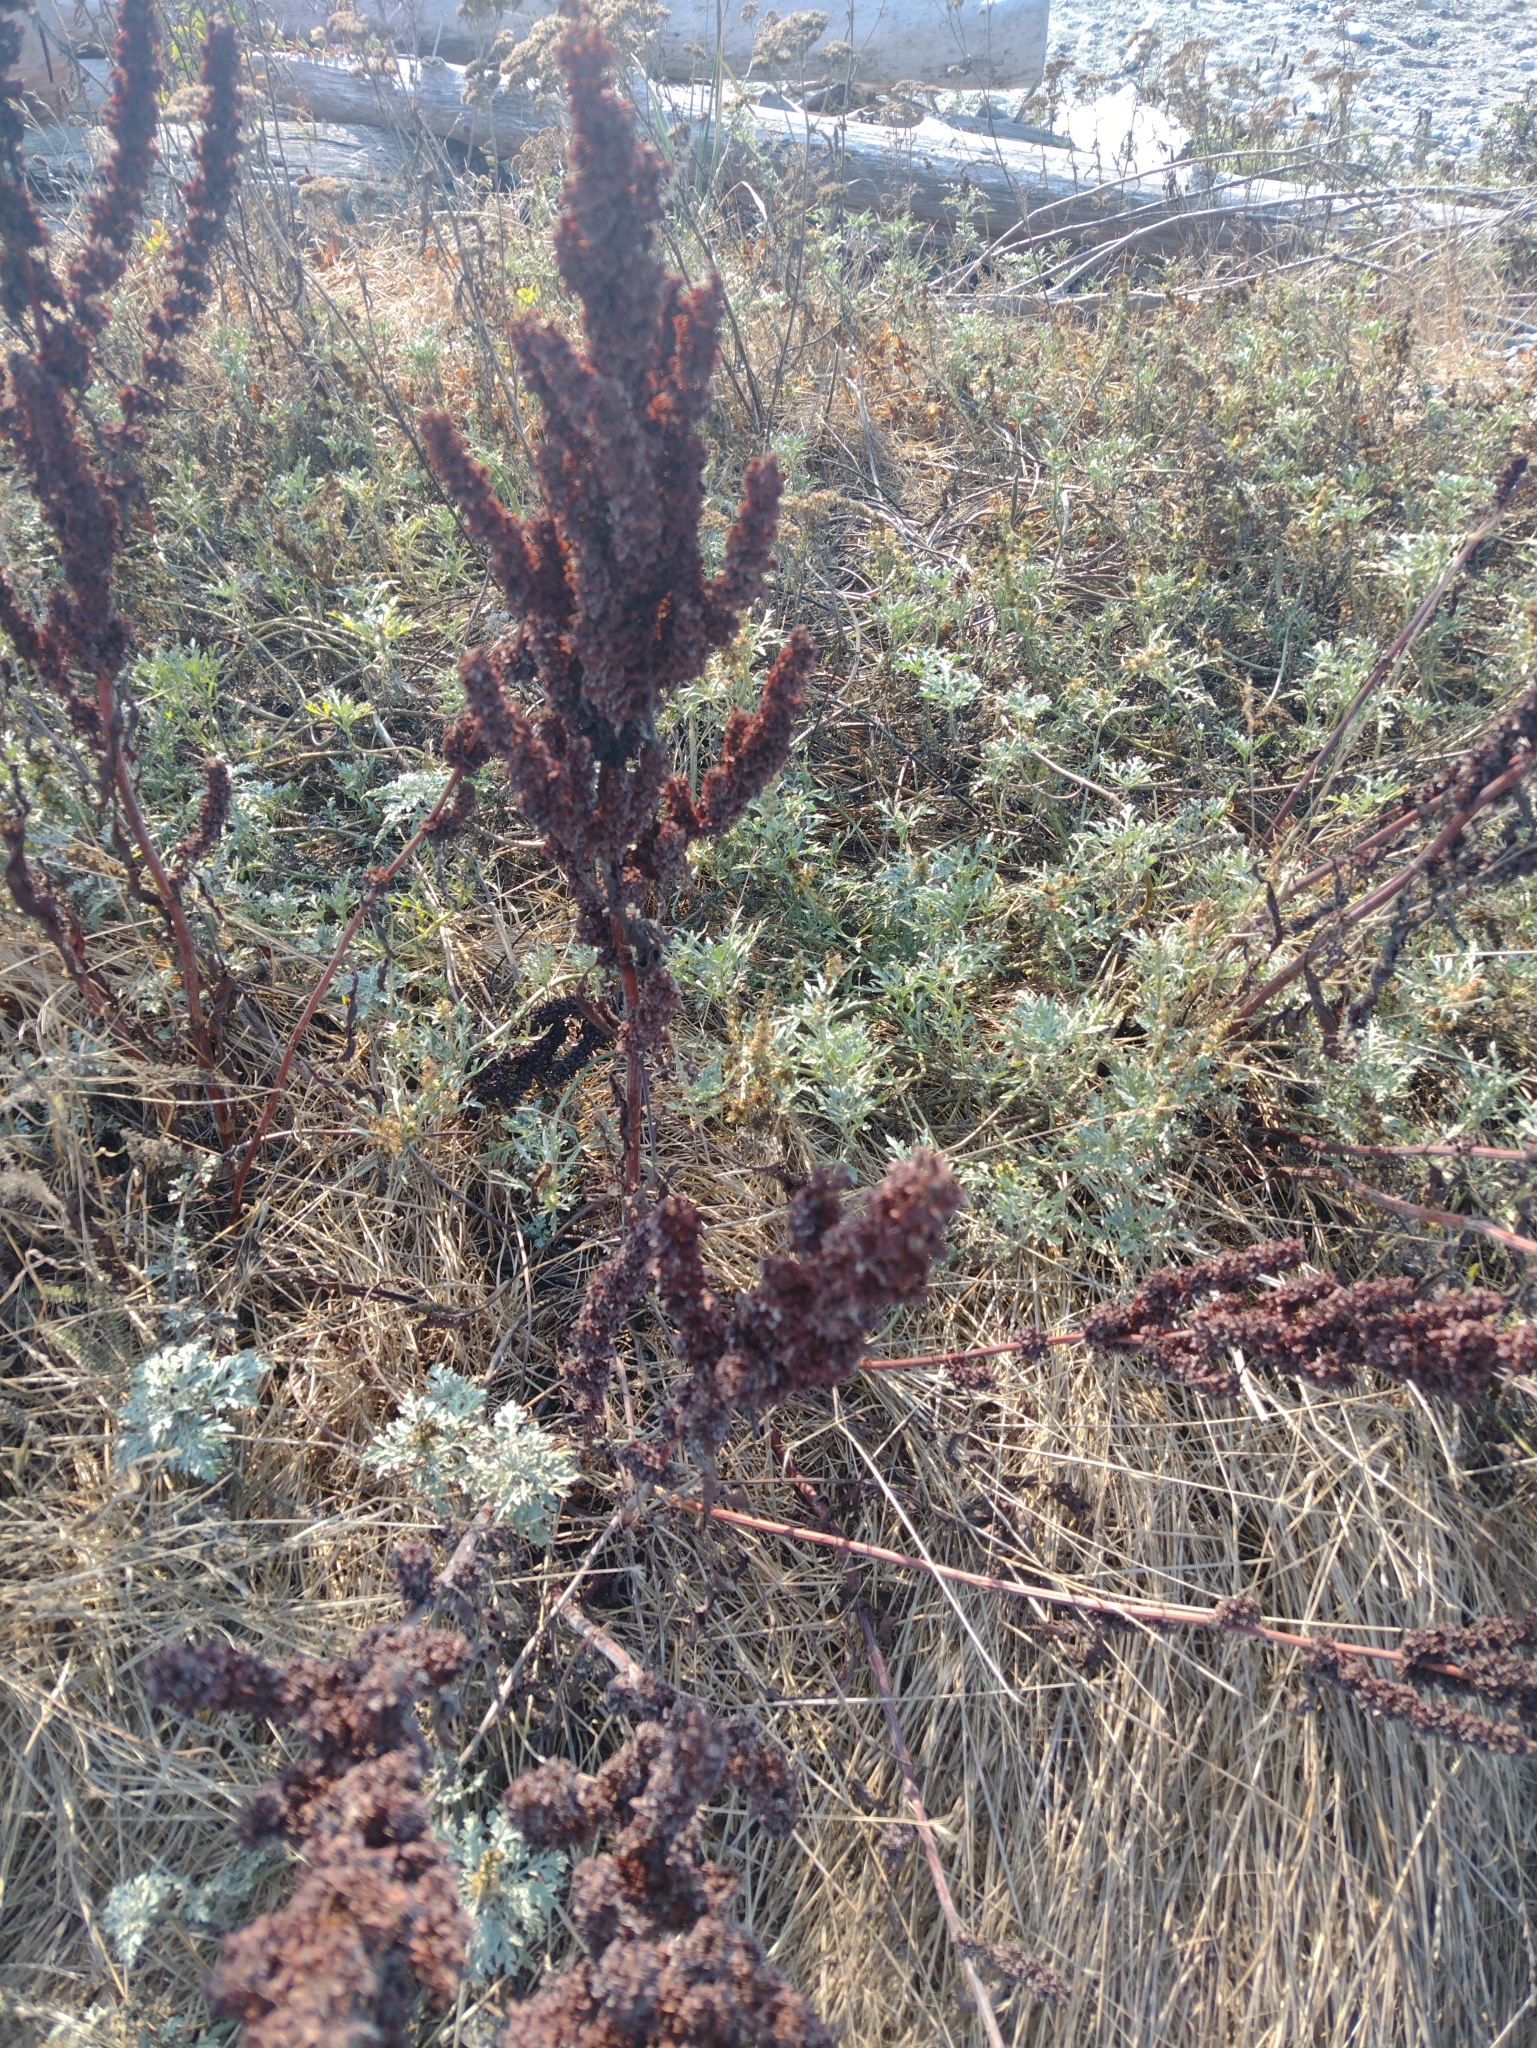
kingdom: Plantae
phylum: Tracheophyta
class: Magnoliopsida
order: Caryophyllales
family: Polygonaceae
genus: Rumex
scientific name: Rumex crispus
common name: Curled dock
